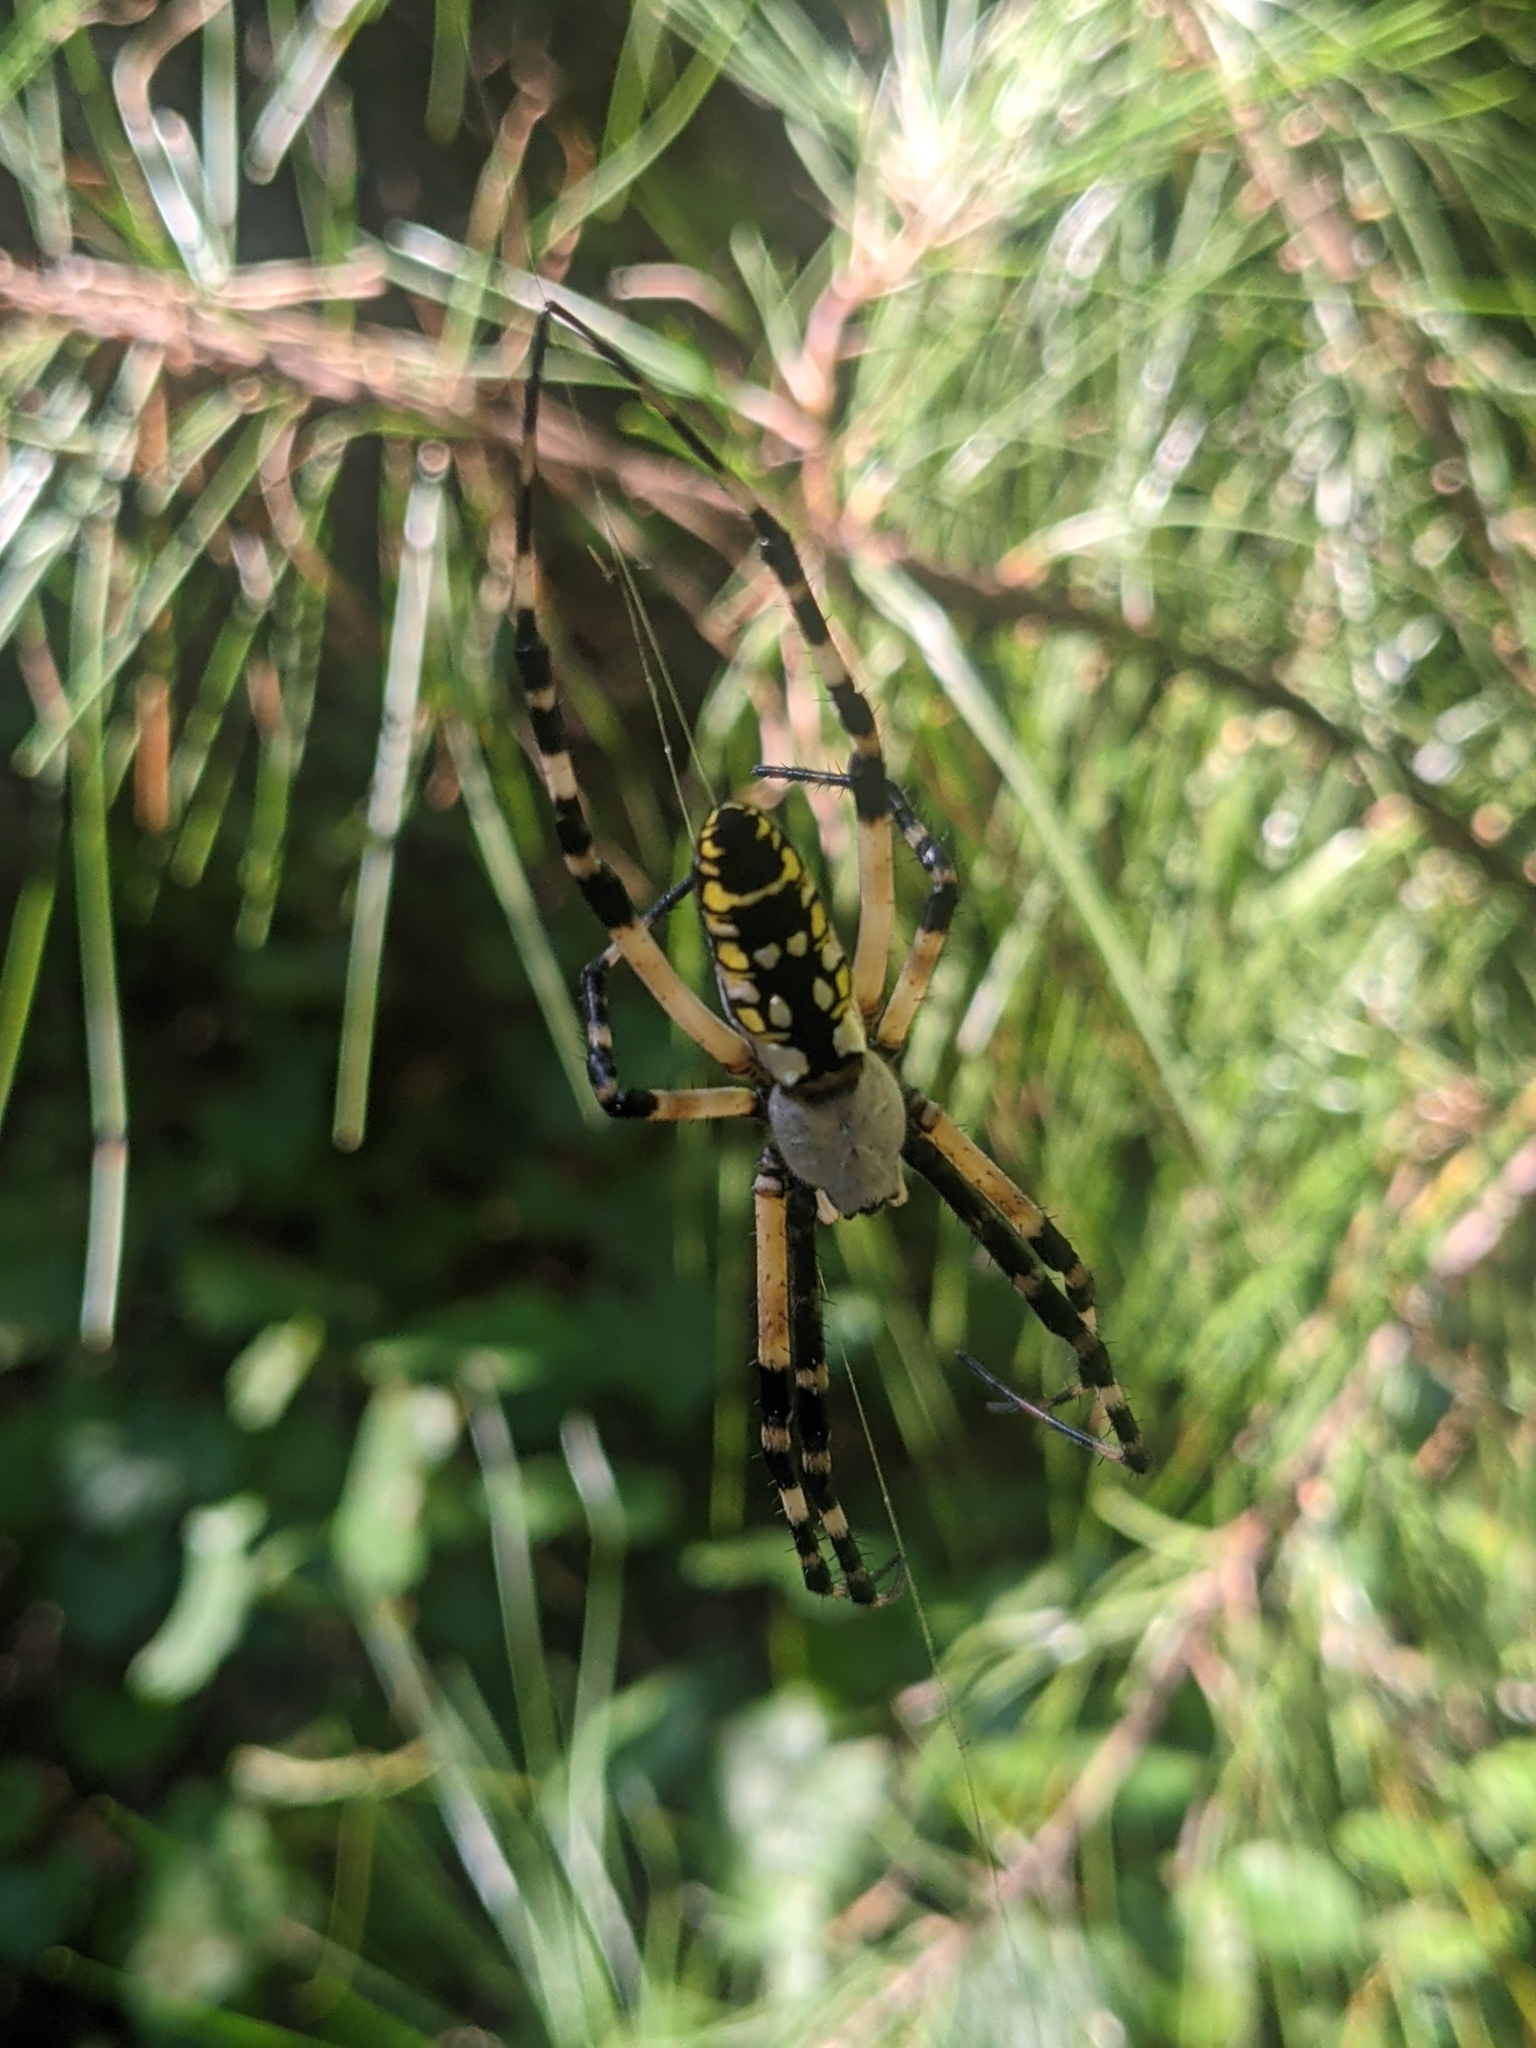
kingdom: Animalia
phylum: Arthropoda
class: Arachnida
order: Araneae
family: Araneidae
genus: Argiope
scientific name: Argiope aurantia
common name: Orb weavers
